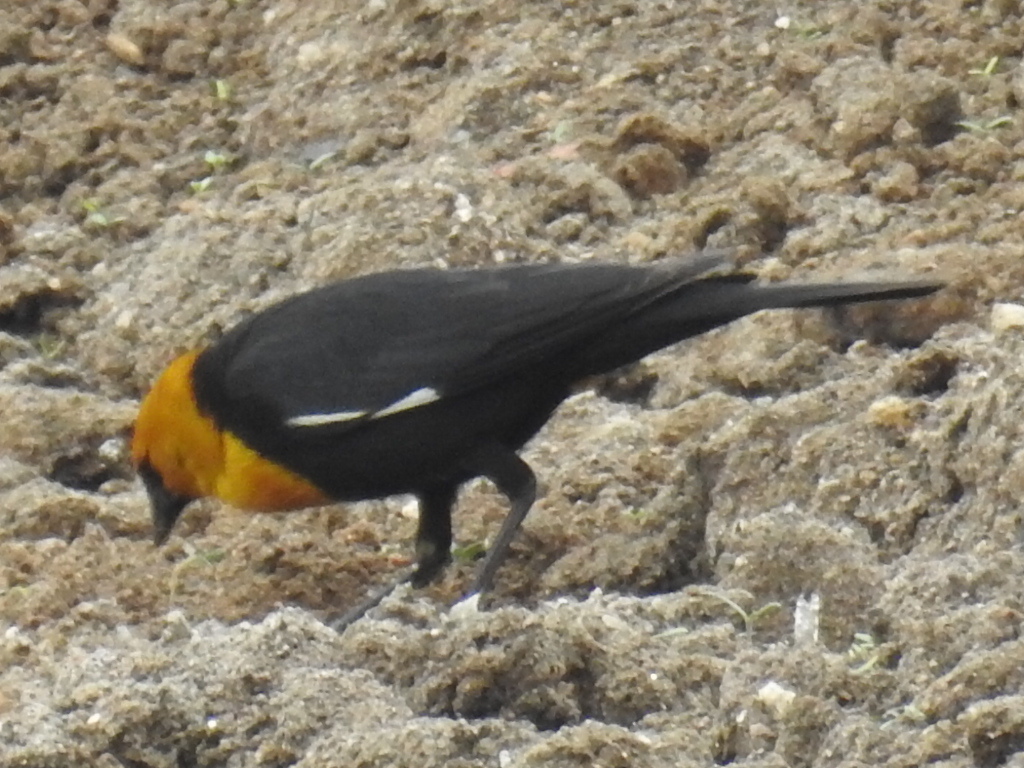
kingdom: Animalia
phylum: Chordata
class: Aves
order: Passeriformes
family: Icteridae
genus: Xanthocephalus
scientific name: Xanthocephalus xanthocephalus
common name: Yellow-headed blackbird
